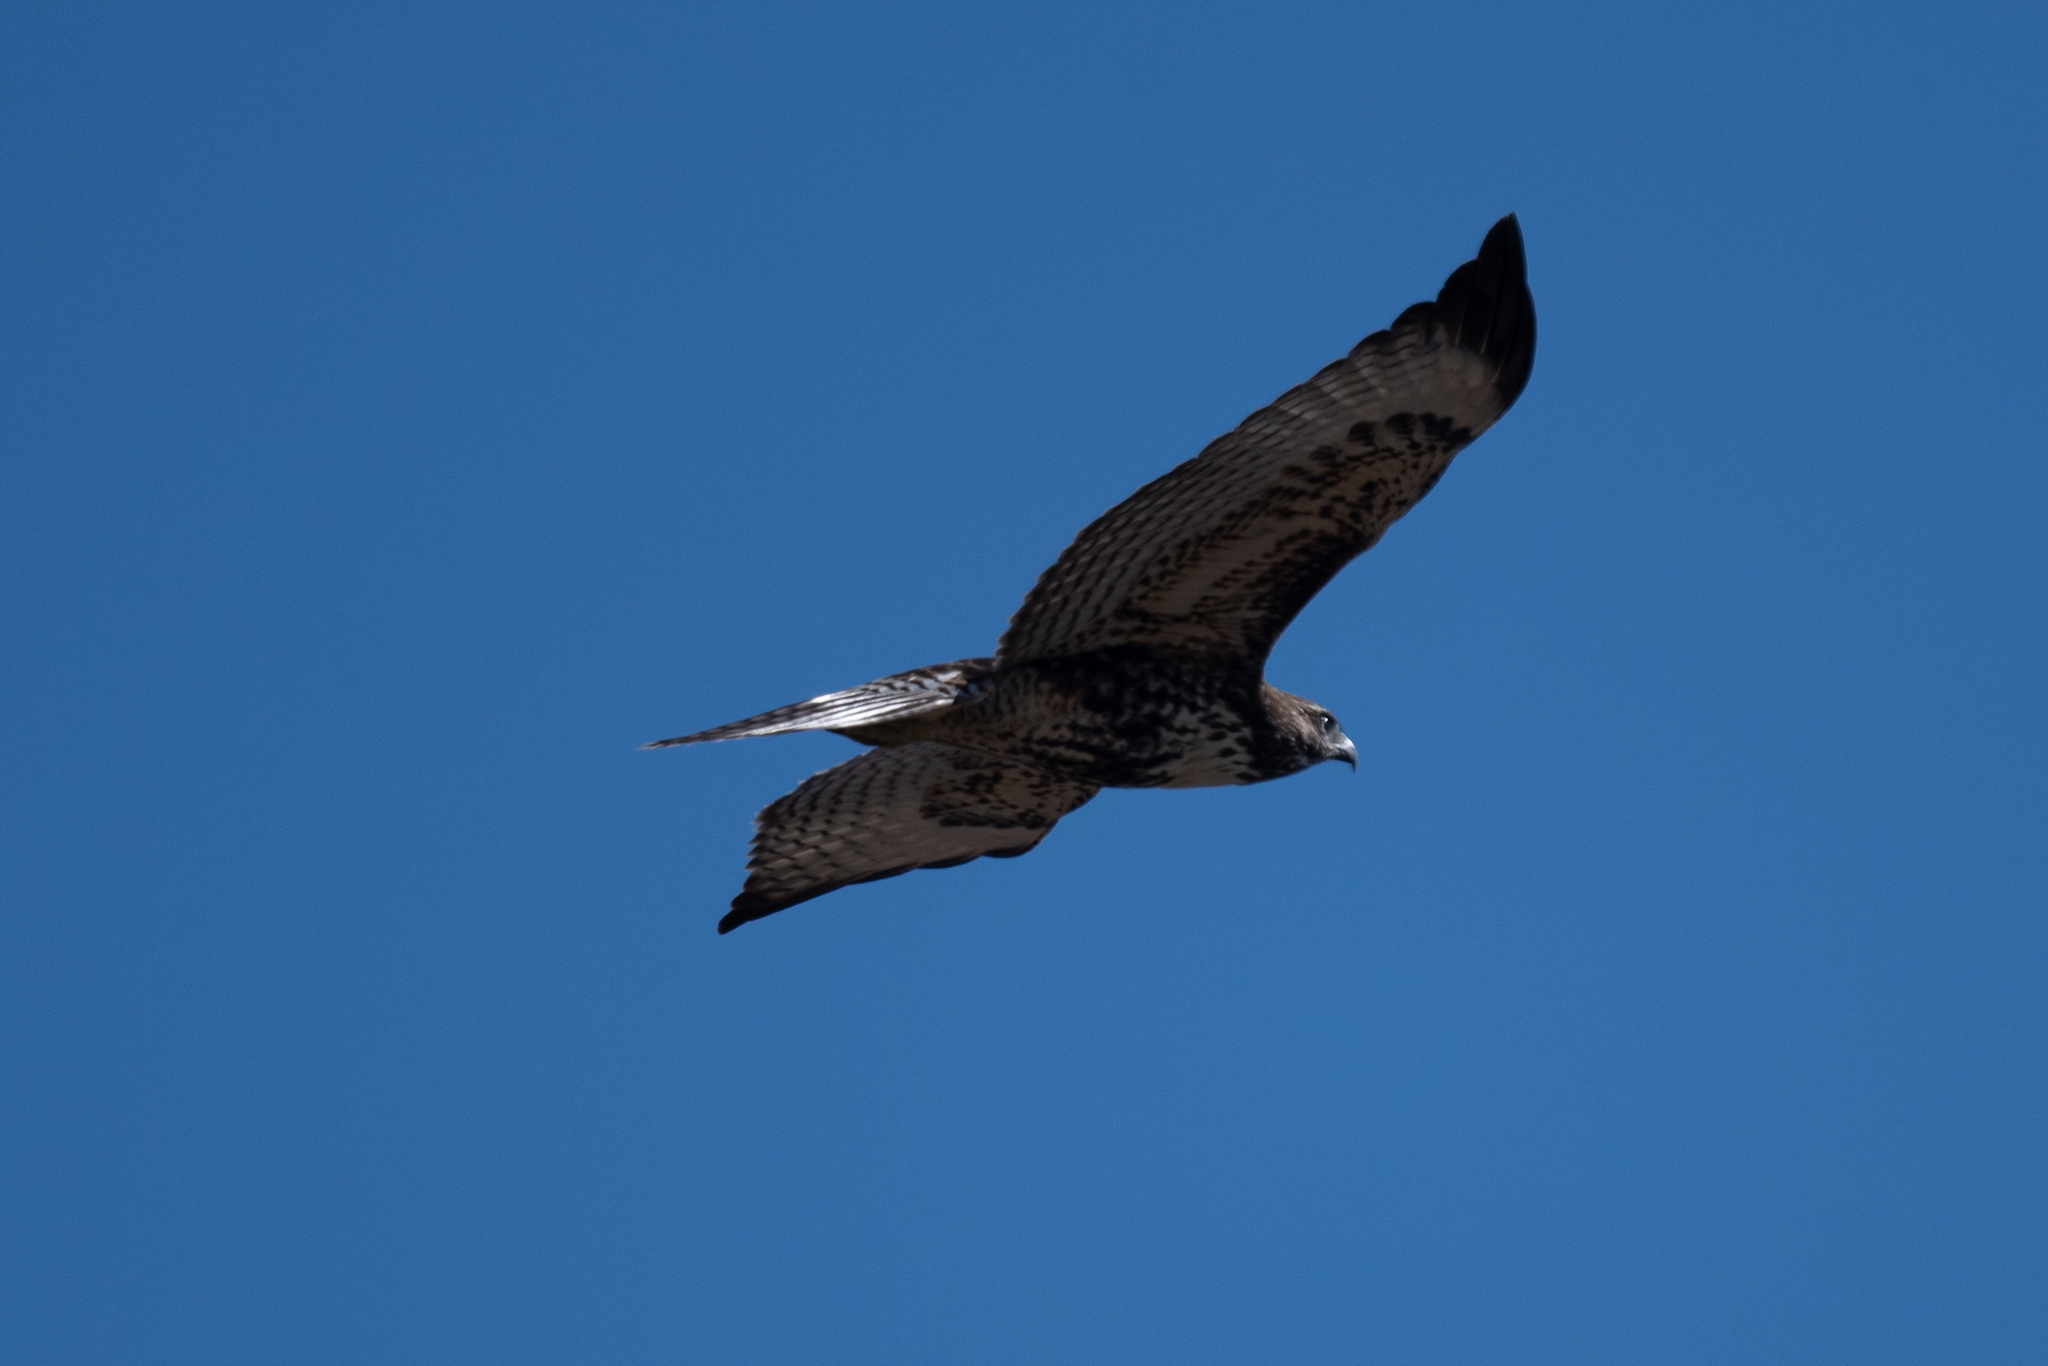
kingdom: Animalia
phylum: Chordata
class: Aves
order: Accipitriformes
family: Accipitridae
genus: Buteo
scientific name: Buteo jamaicensis
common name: Red-tailed hawk
